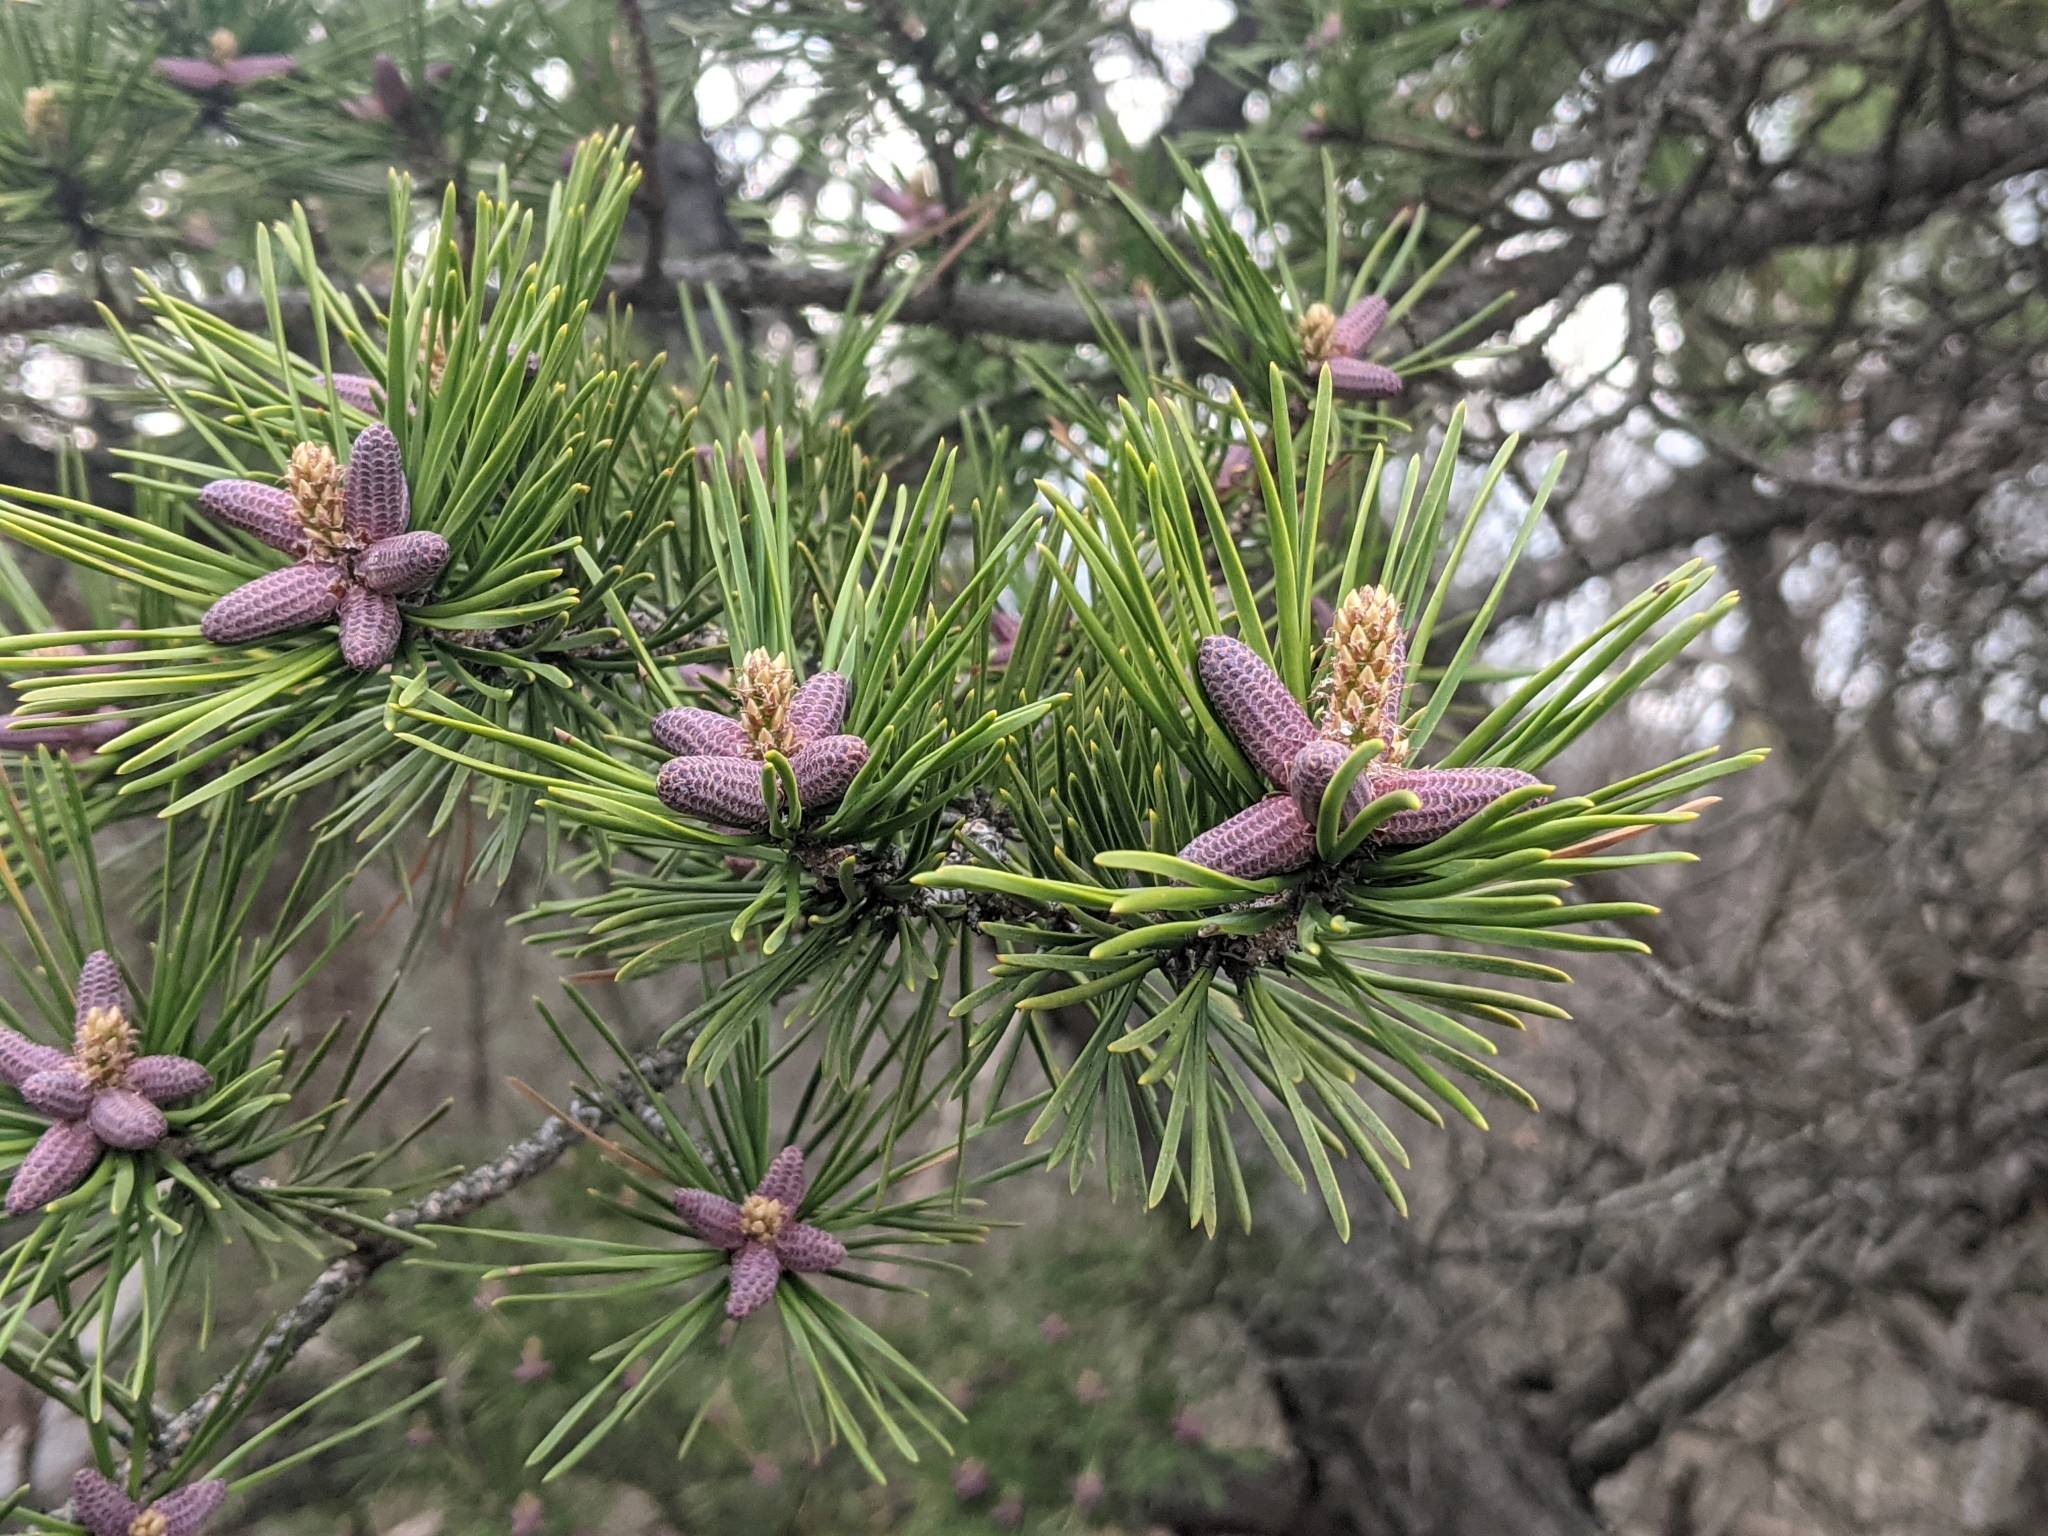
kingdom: Plantae
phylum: Tracheophyta
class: Pinopsida
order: Pinales
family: Pinaceae
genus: Pinus
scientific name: Pinus virginiana
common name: Scrub pine
